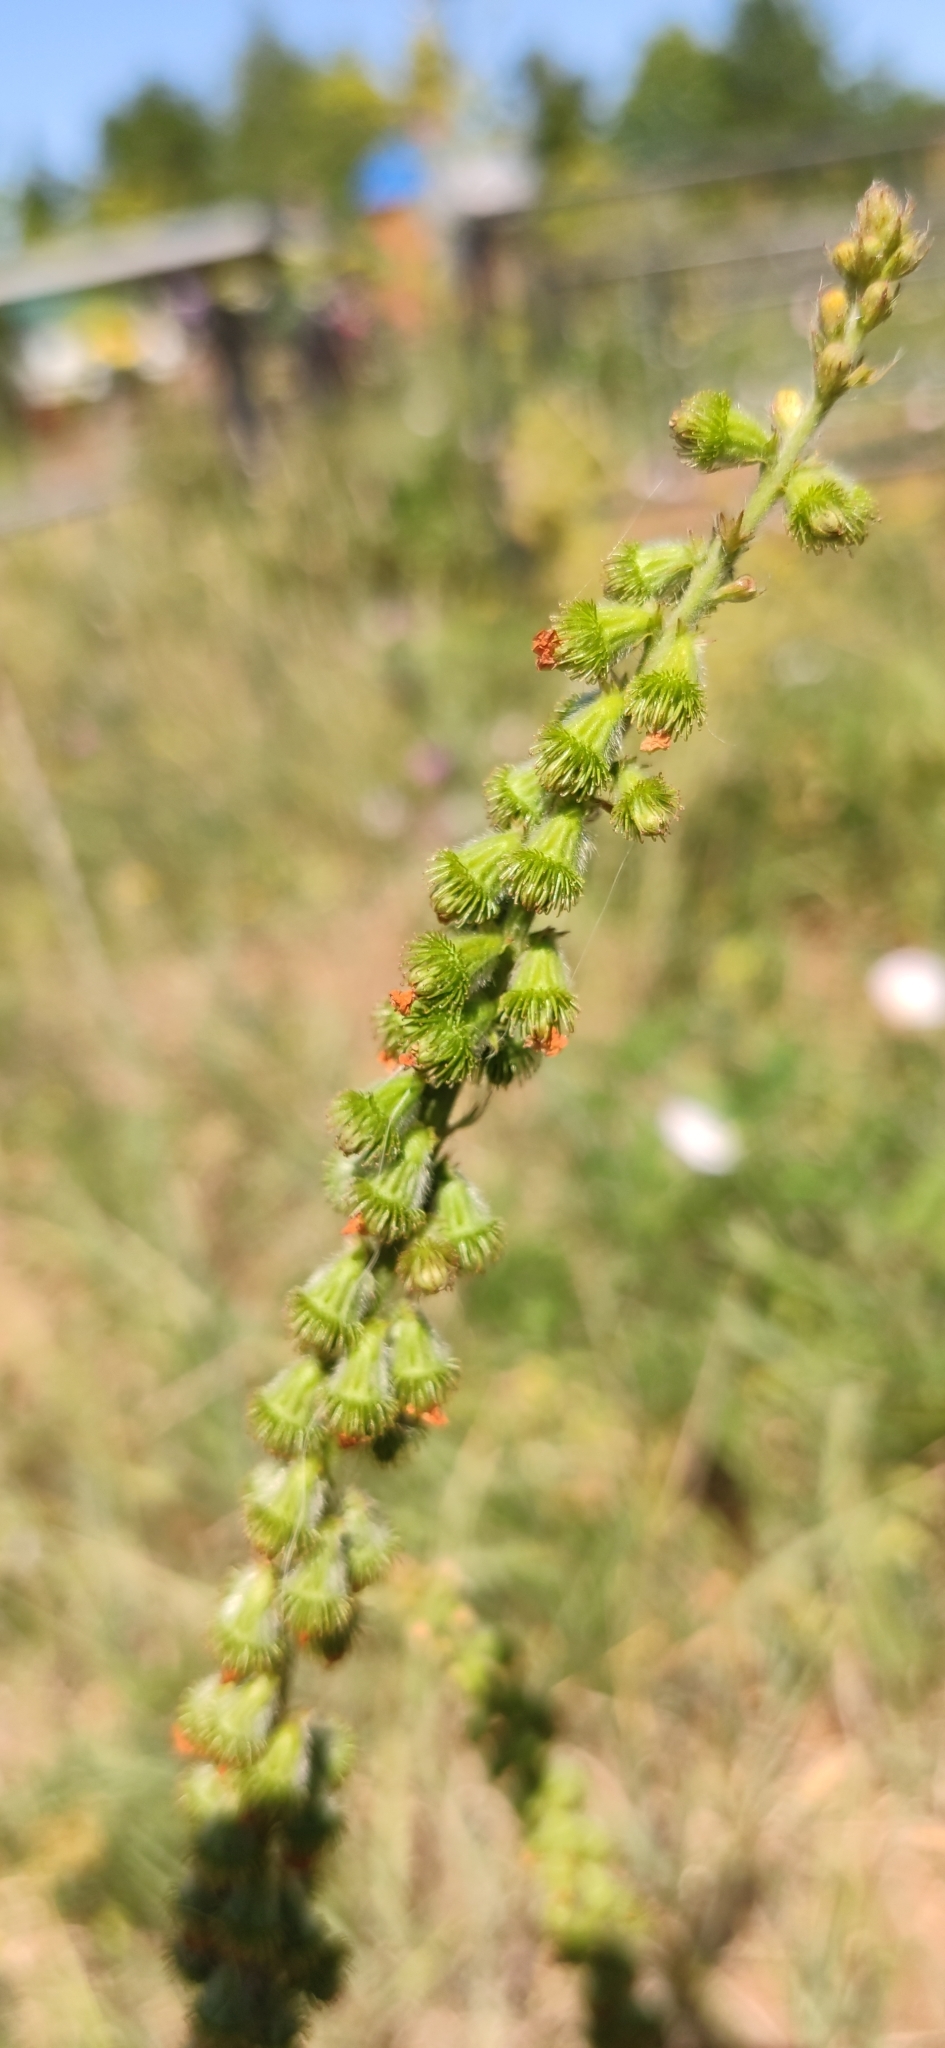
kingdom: Plantae
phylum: Tracheophyta
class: Magnoliopsida
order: Rosales
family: Rosaceae
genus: Agrimonia
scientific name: Agrimonia eupatoria
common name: Agrimony
